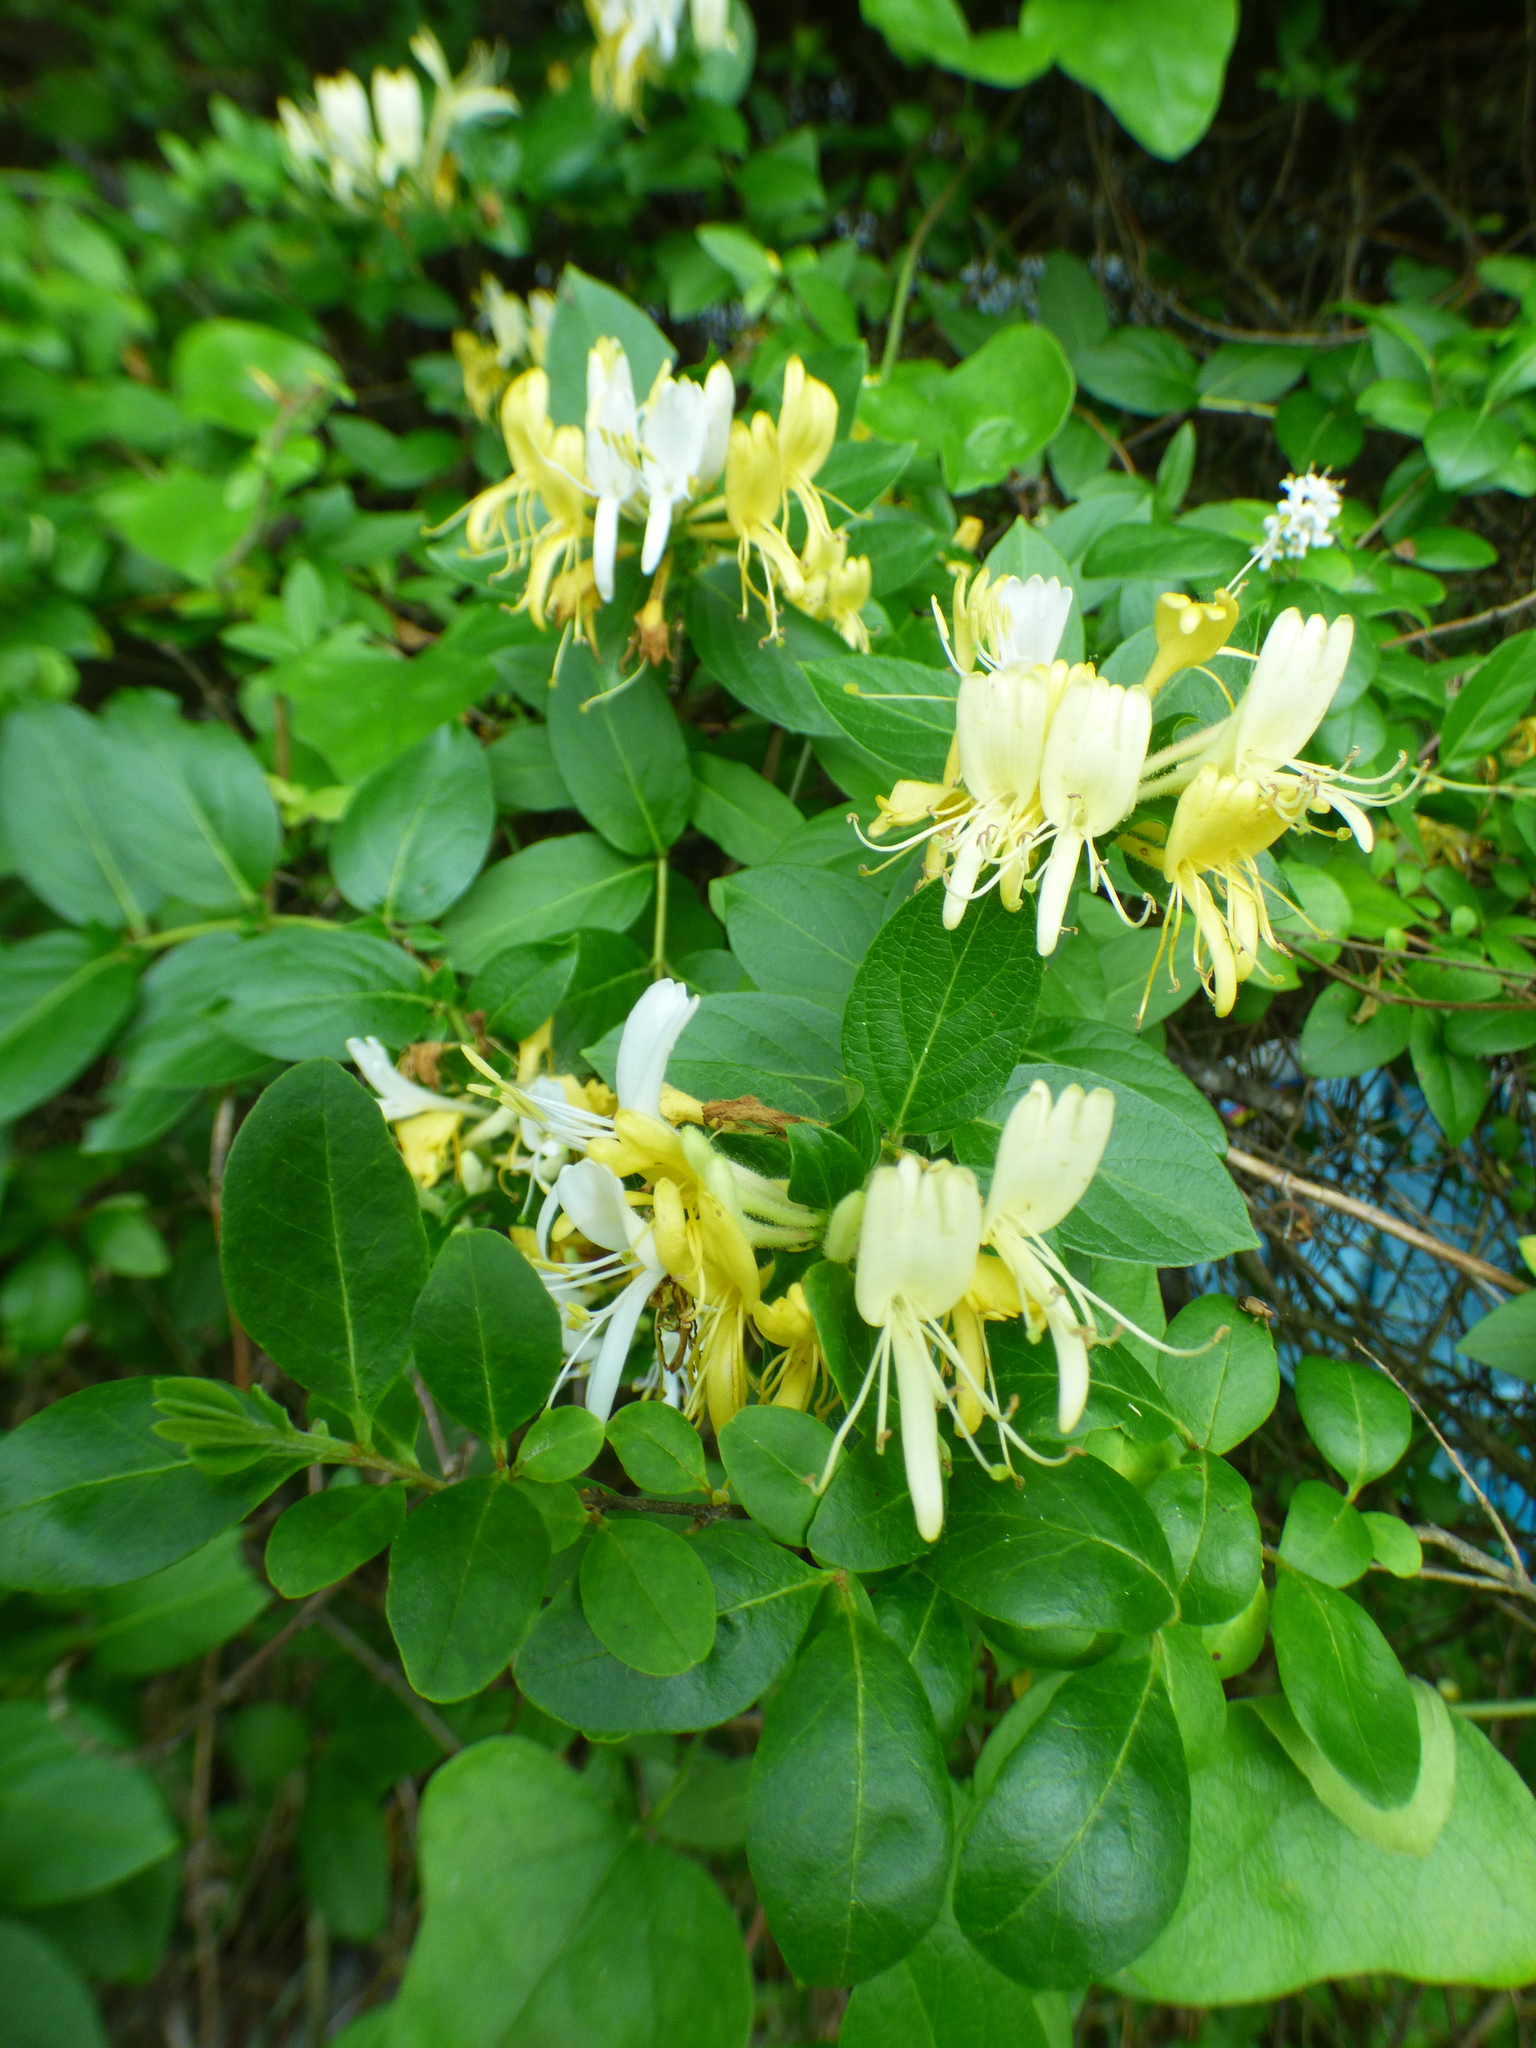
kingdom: Plantae
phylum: Tracheophyta
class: Magnoliopsida
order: Dipsacales
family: Caprifoliaceae
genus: Lonicera
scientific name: Lonicera japonica
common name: Japanese honeysuckle
